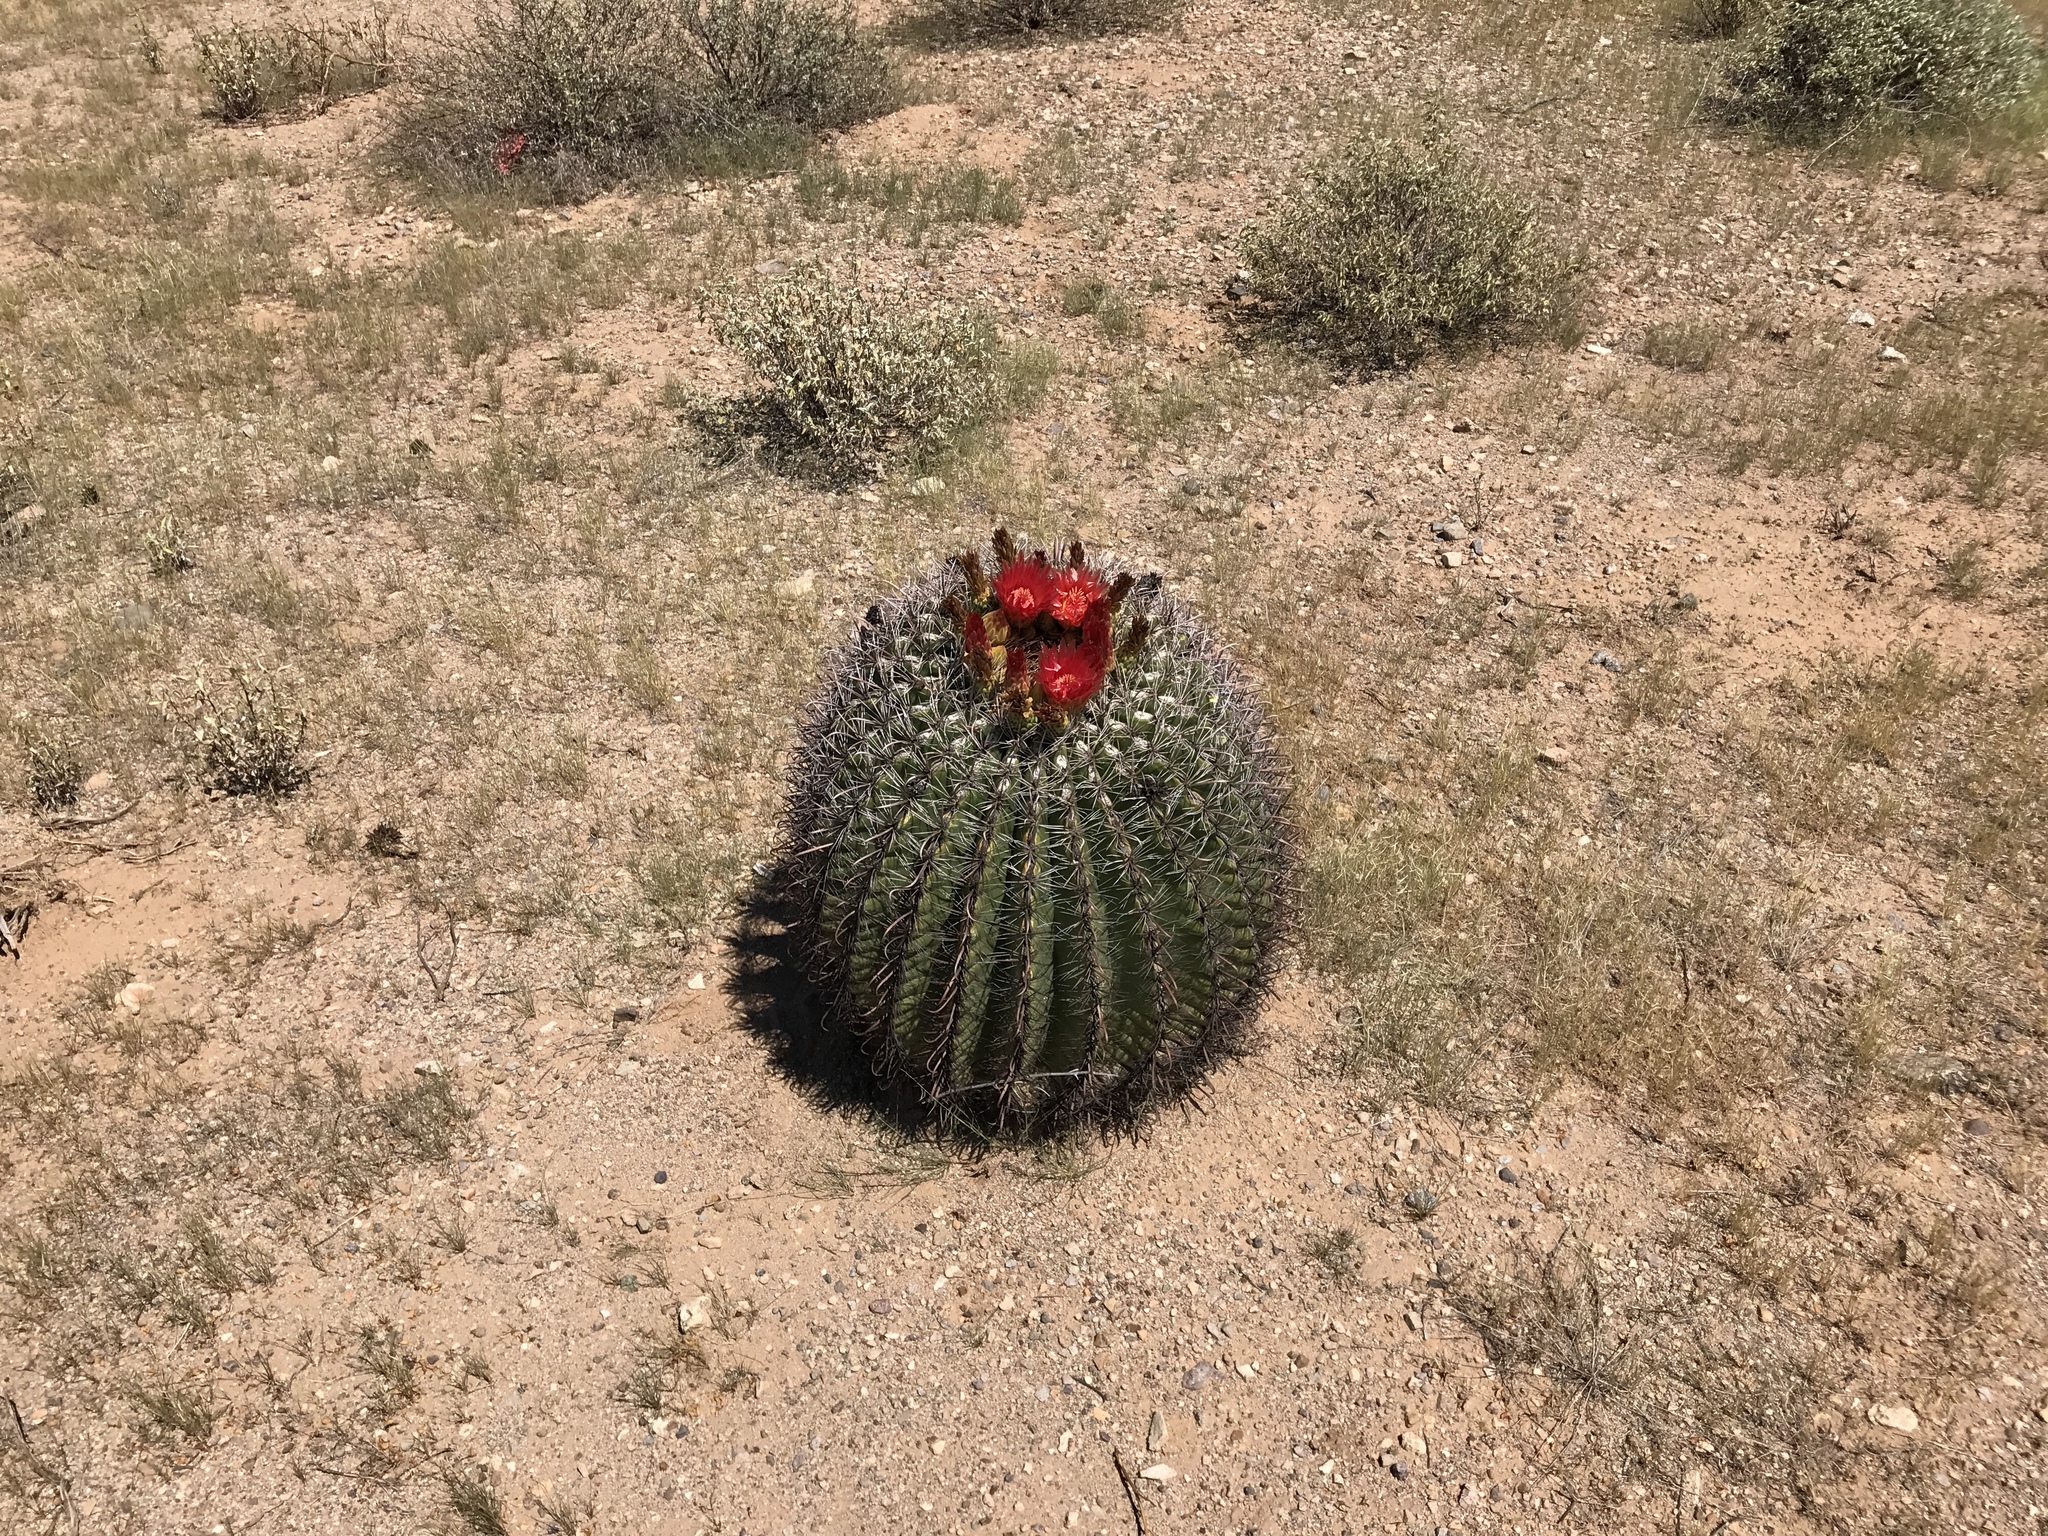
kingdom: Plantae
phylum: Tracheophyta
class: Magnoliopsida
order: Caryophyllales
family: Cactaceae
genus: Ferocactus
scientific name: Ferocactus wislizeni
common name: Candy barrel cactus
